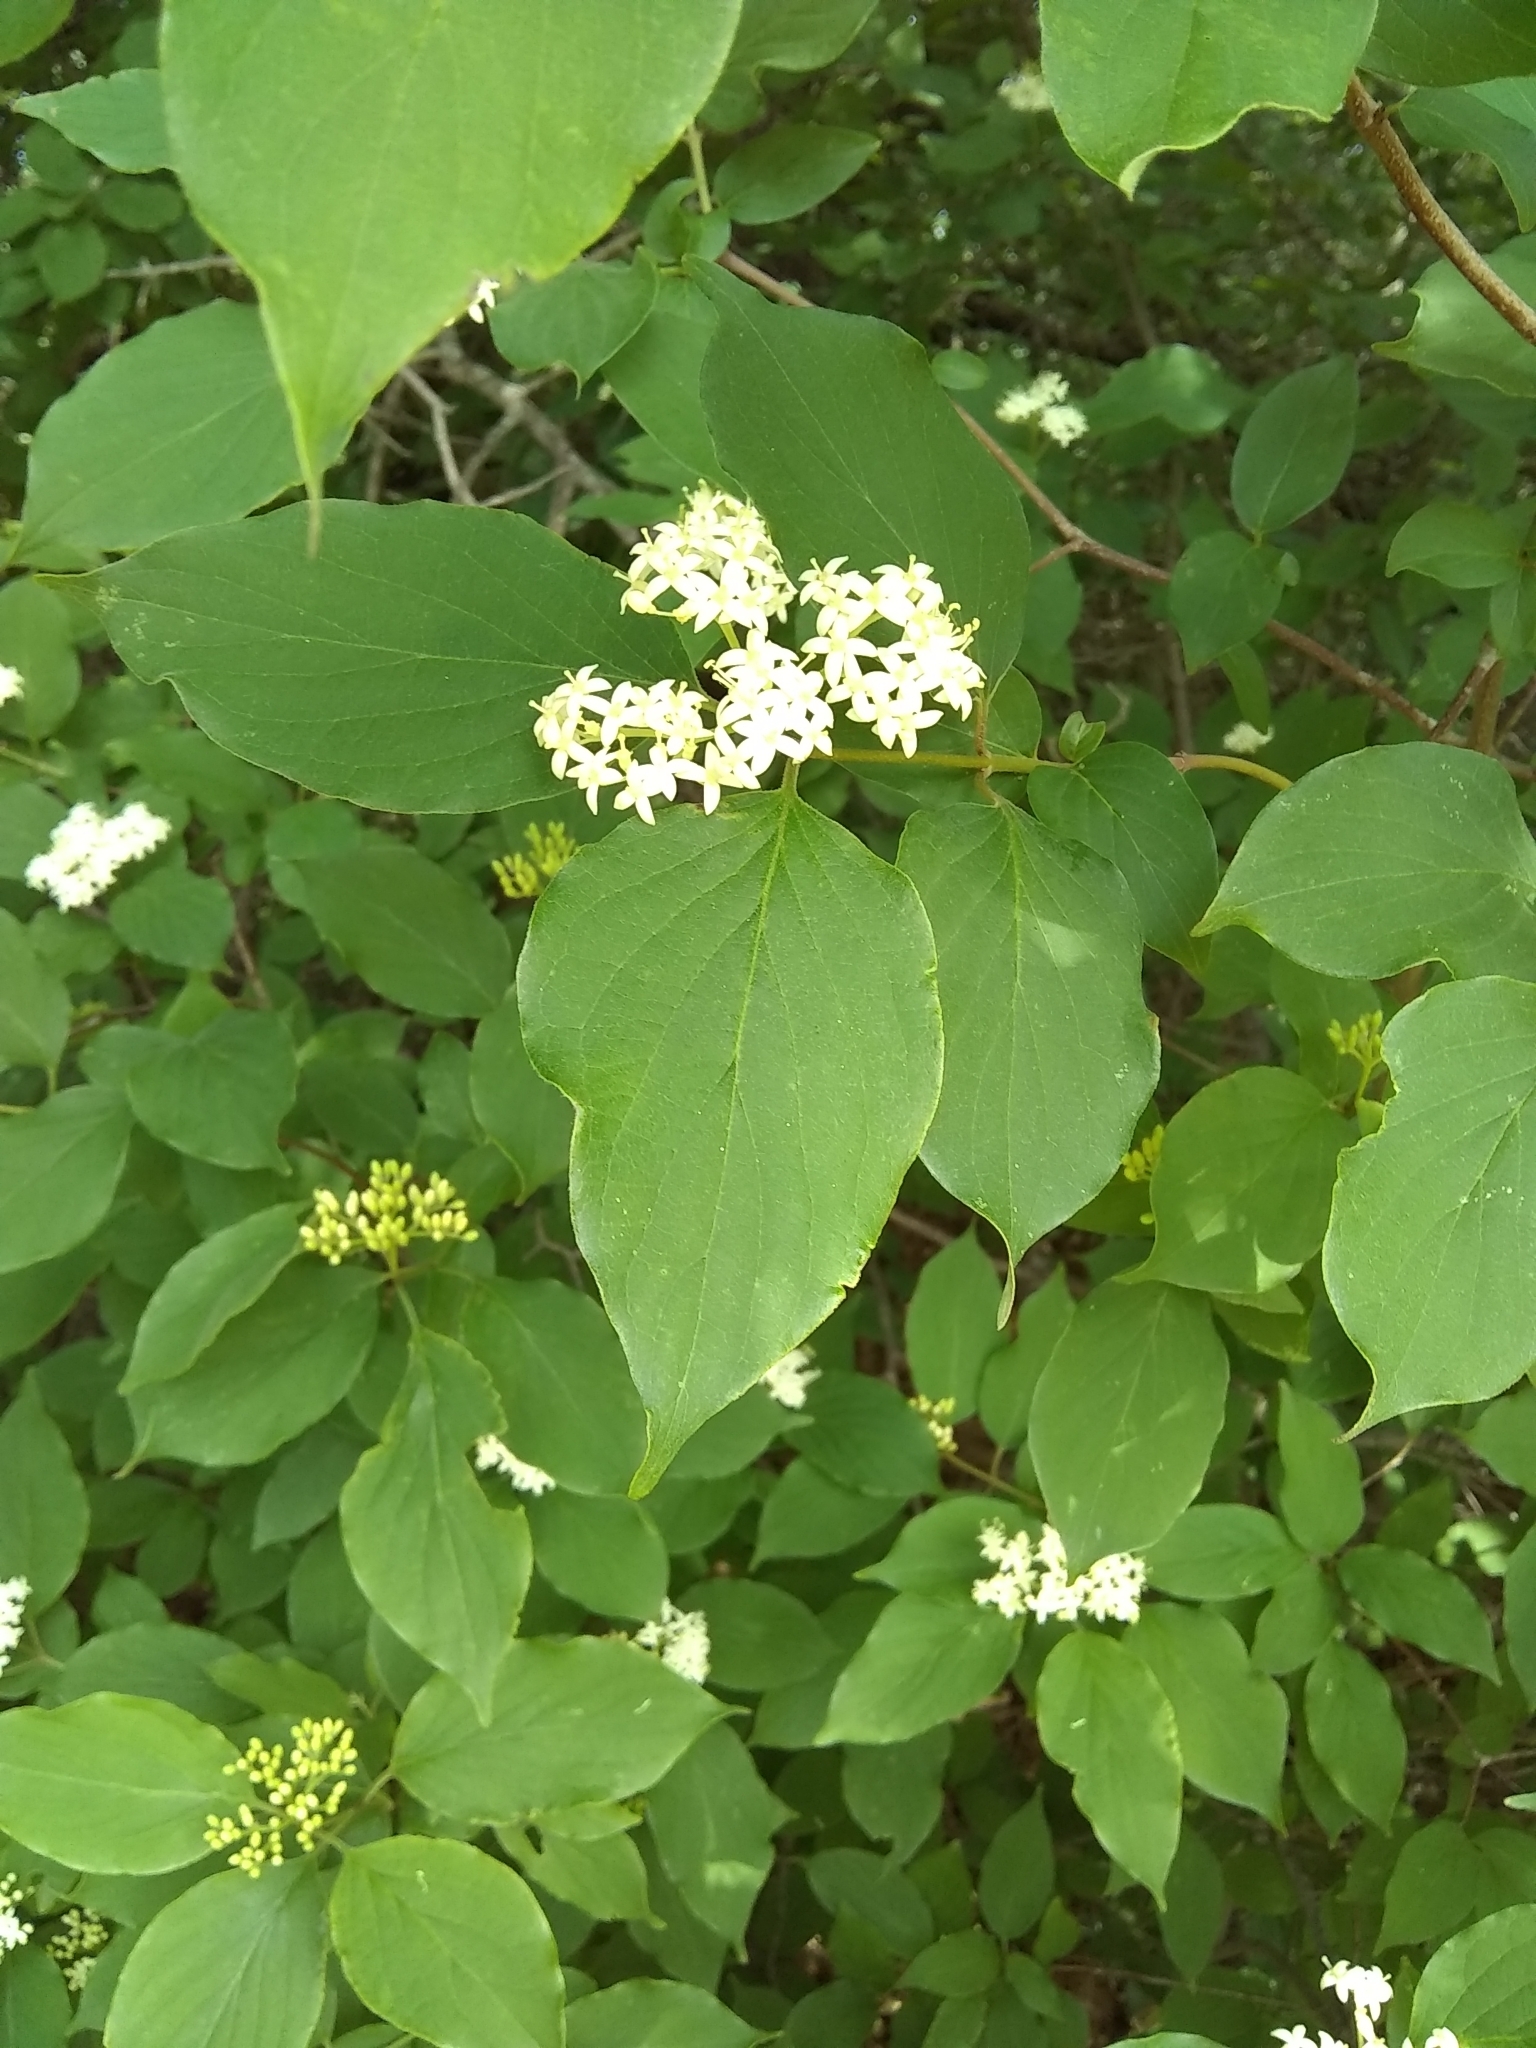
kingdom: Plantae
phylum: Tracheophyta
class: Magnoliopsida
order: Cornales
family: Cornaceae
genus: Cornus
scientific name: Cornus drummondii
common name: Rough-leaf dogwood
